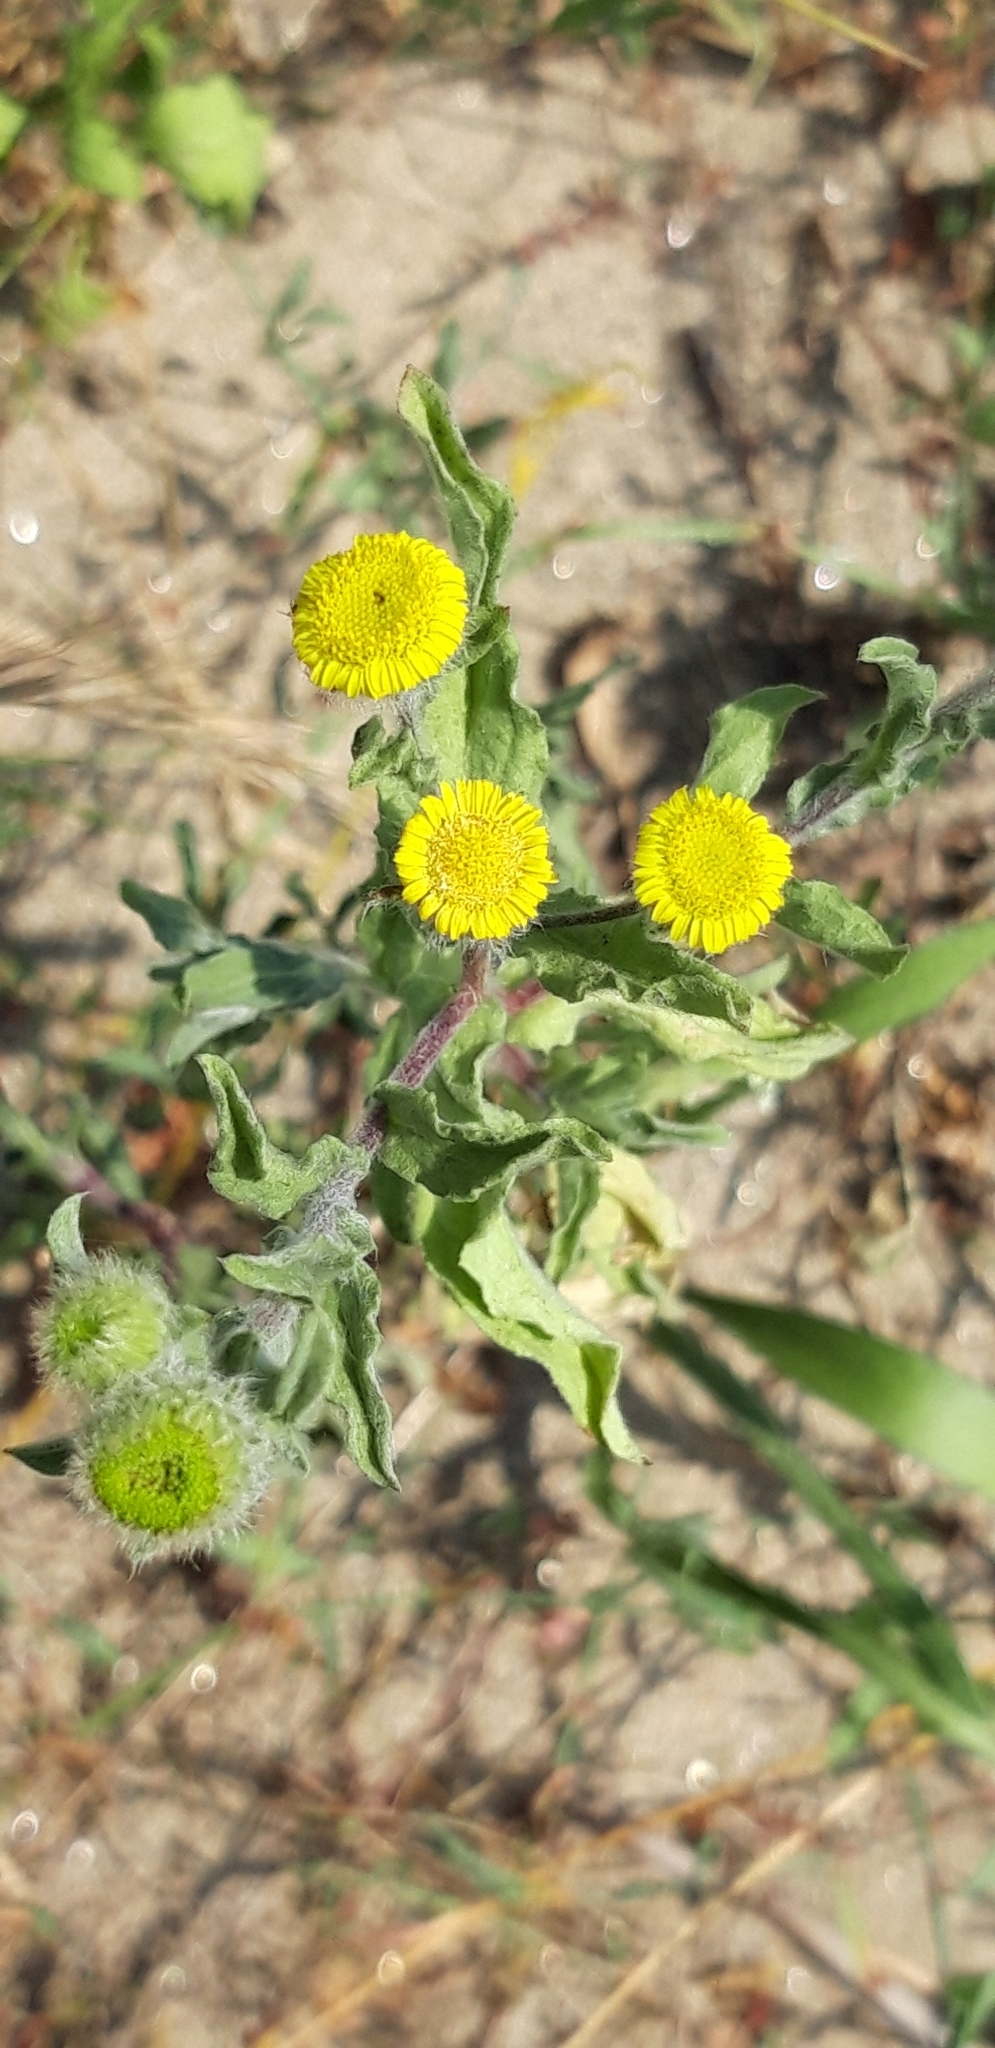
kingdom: Plantae
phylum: Tracheophyta
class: Magnoliopsida
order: Asterales
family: Asteraceae
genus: Pulicaria
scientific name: Pulicaria vulgaris
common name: Small fleabane
